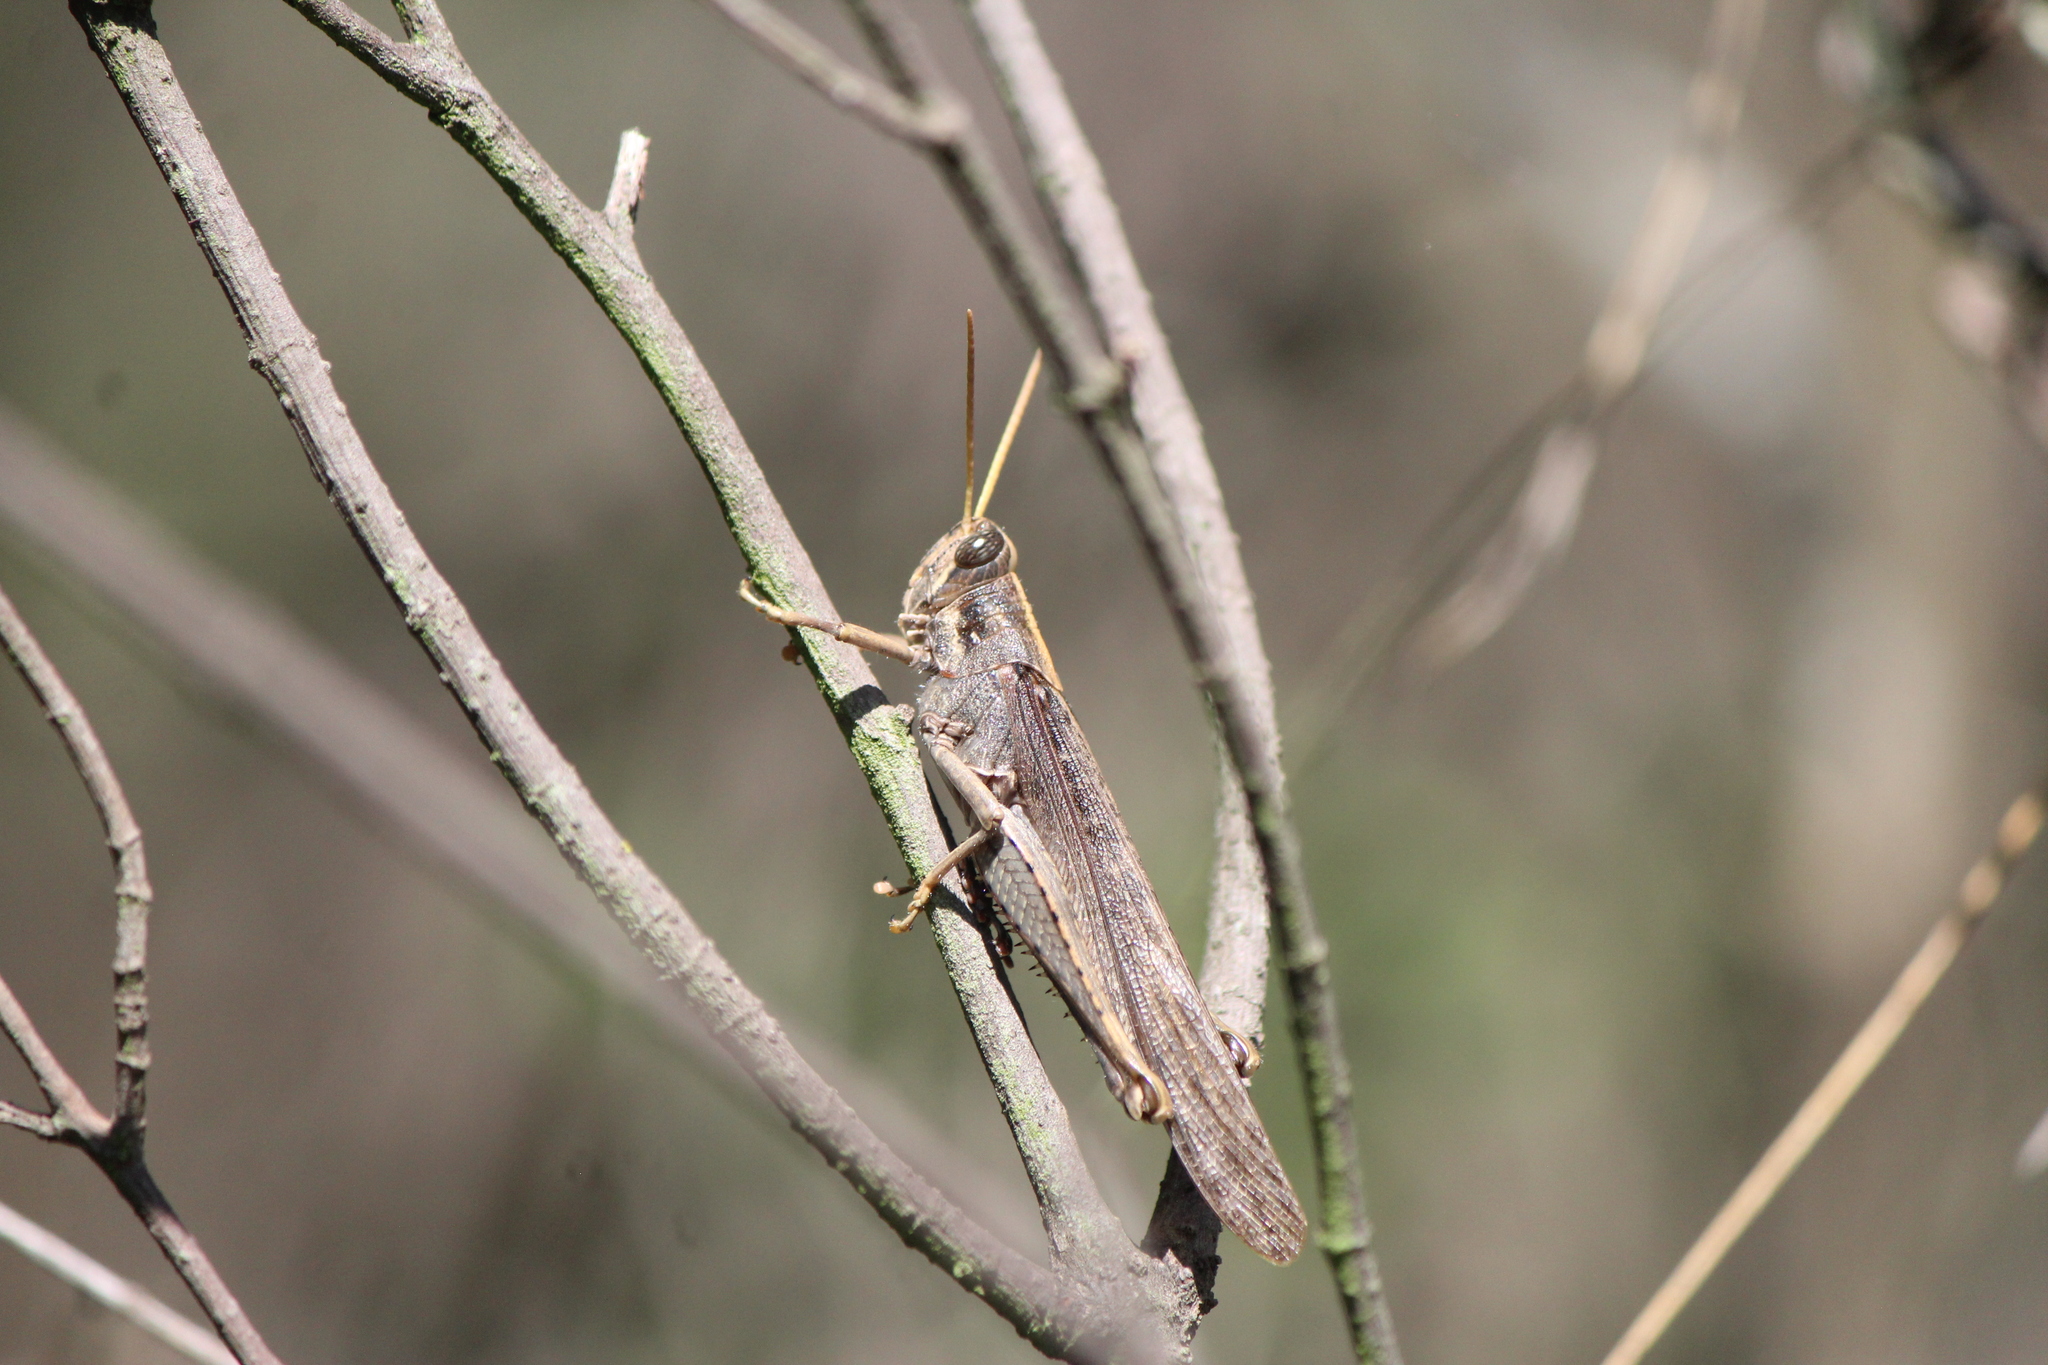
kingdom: Animalia
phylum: Arthropoda
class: Insecta
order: Orthoptera
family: Acrididae
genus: Schistocerca
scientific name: Schistocerca nitens
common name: Vagrant grasshopper
